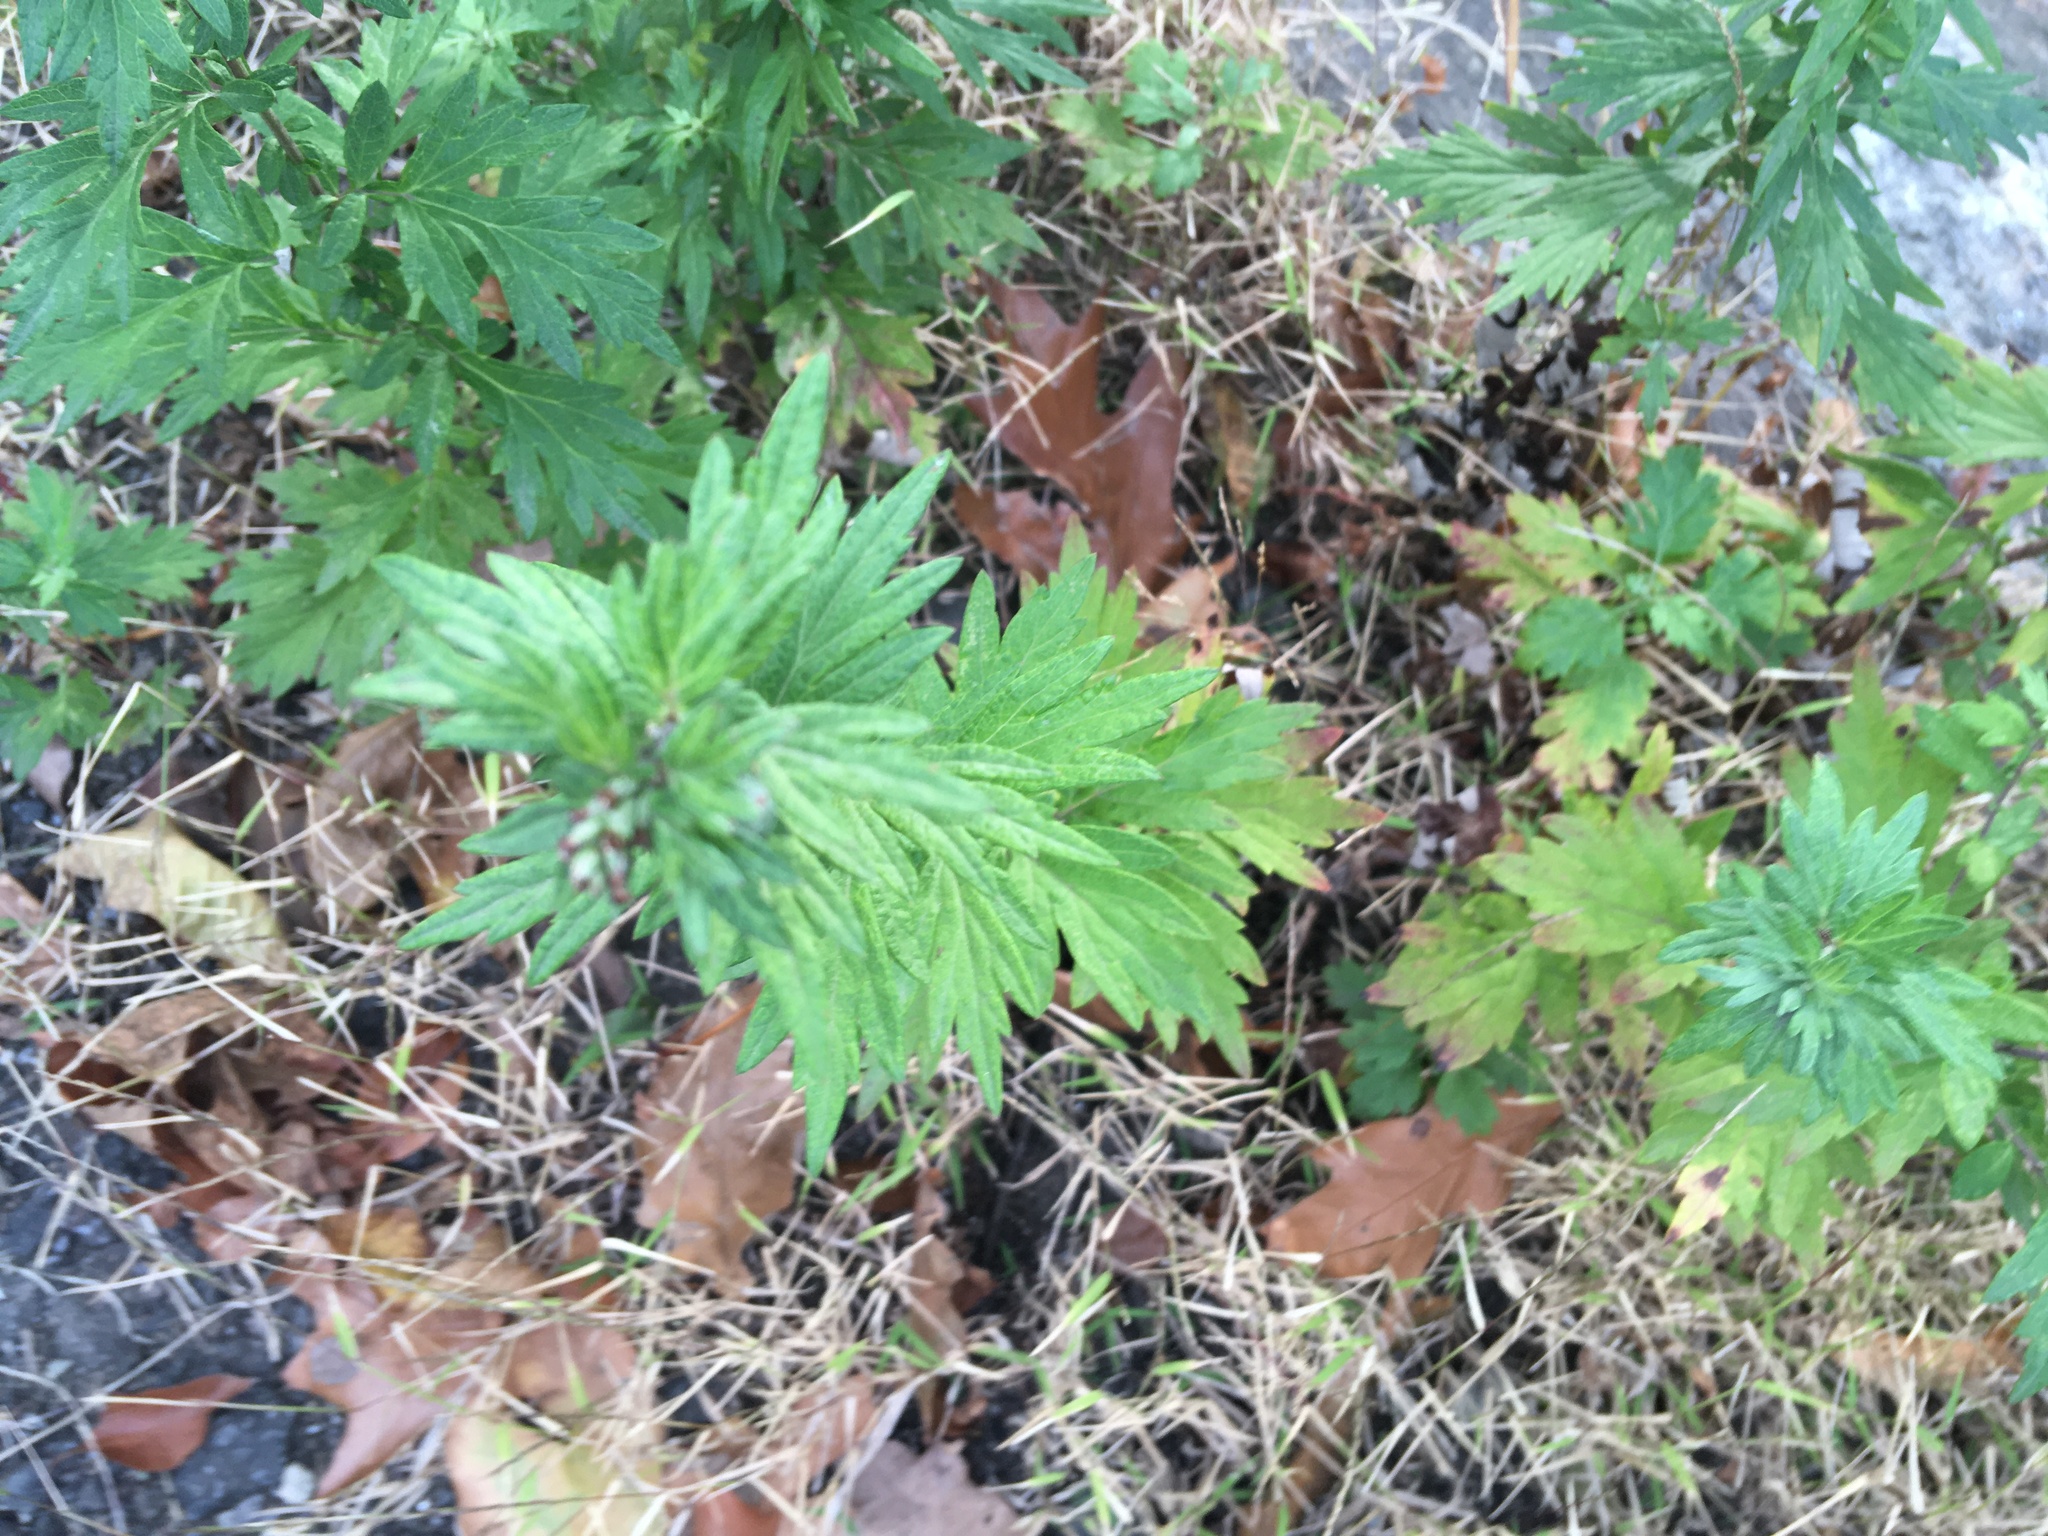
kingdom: Plantae
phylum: Tracheophyta
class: Magnoliopsida
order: Asterales
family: Asteraceae
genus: Artemisia
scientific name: Artemisia vulgaris
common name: Mugwort
